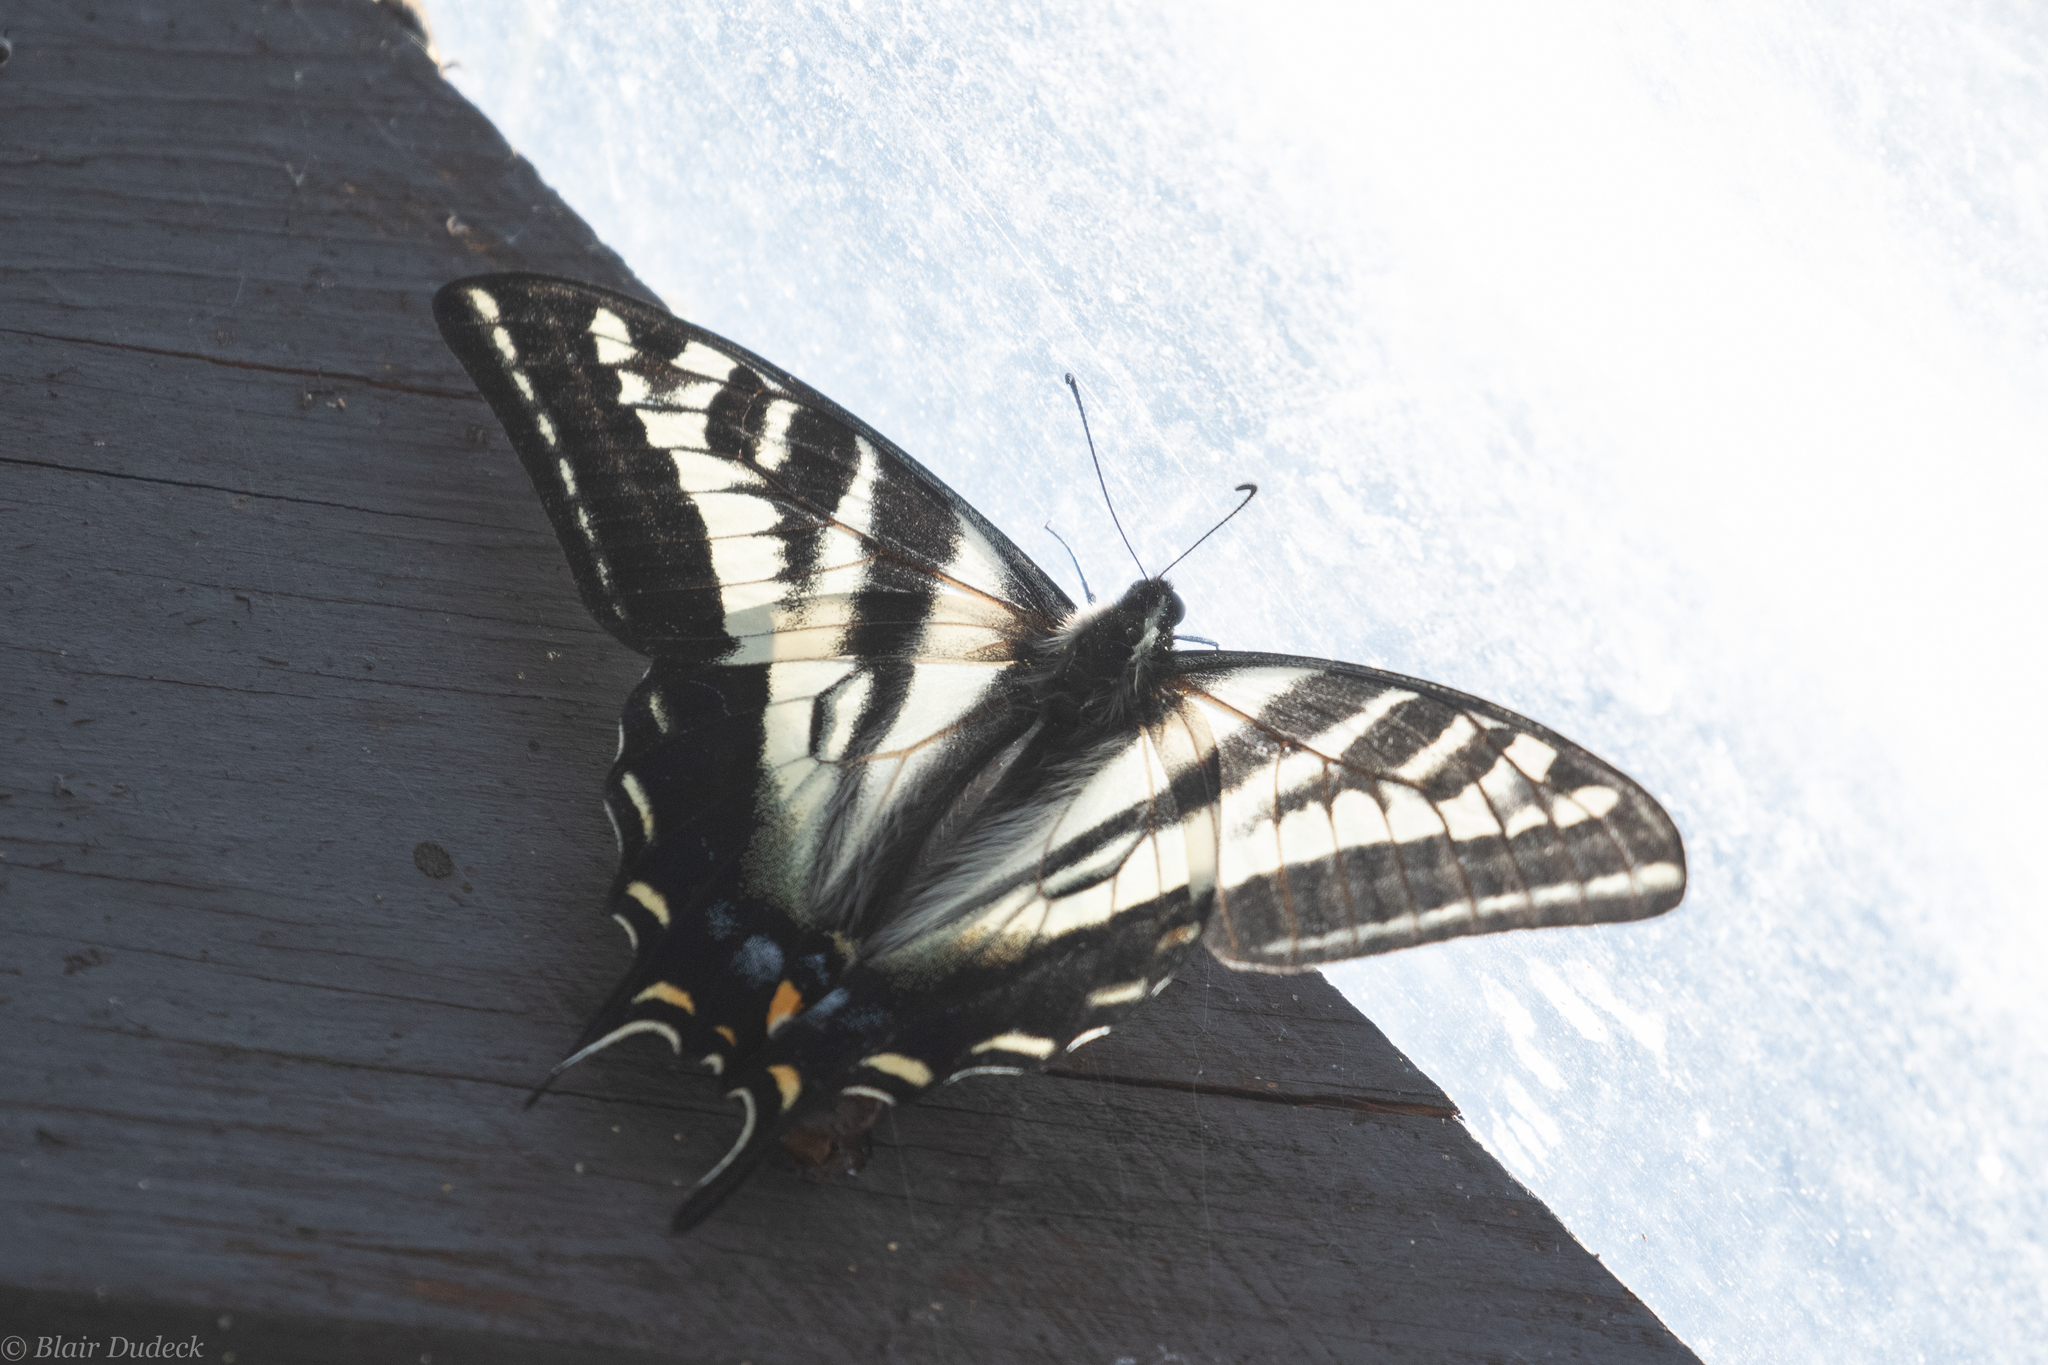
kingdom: Animalia
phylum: Arthropoda
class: Insecta
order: Lepidoptera
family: Papilionidae
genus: Papilio
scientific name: Papilio eurymedon
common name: Pale tiger swallowtail
